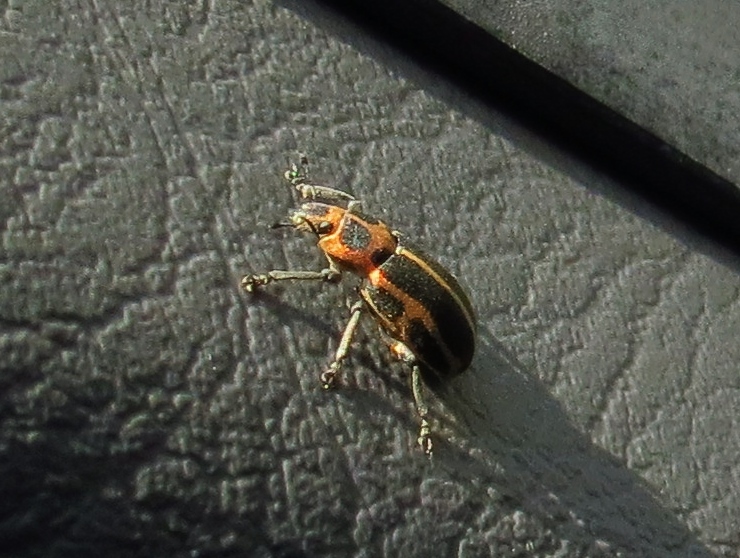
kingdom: Animalia
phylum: Arthropoda
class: Insecta
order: Coleoptera
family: Curculionidae
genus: Eudiagogus
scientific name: Eudiagogus pulcher
